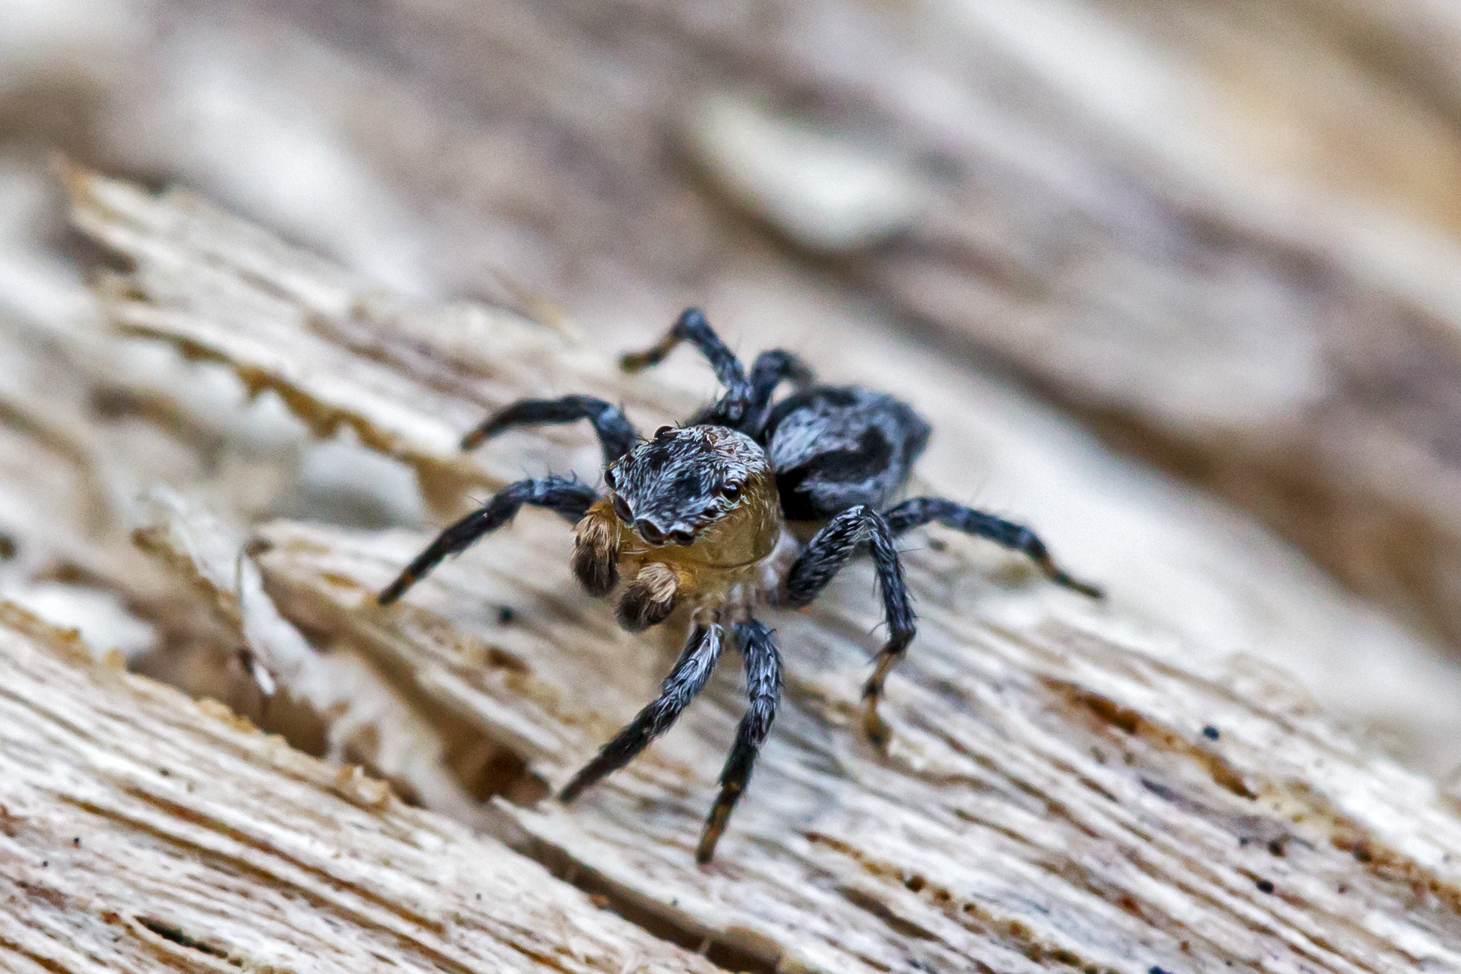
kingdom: Animalia
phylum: Arthropoda
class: Arachnida
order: Araneae
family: Salticidae
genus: Naphrys
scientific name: Naphrys pulex
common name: Flea jumping spider
